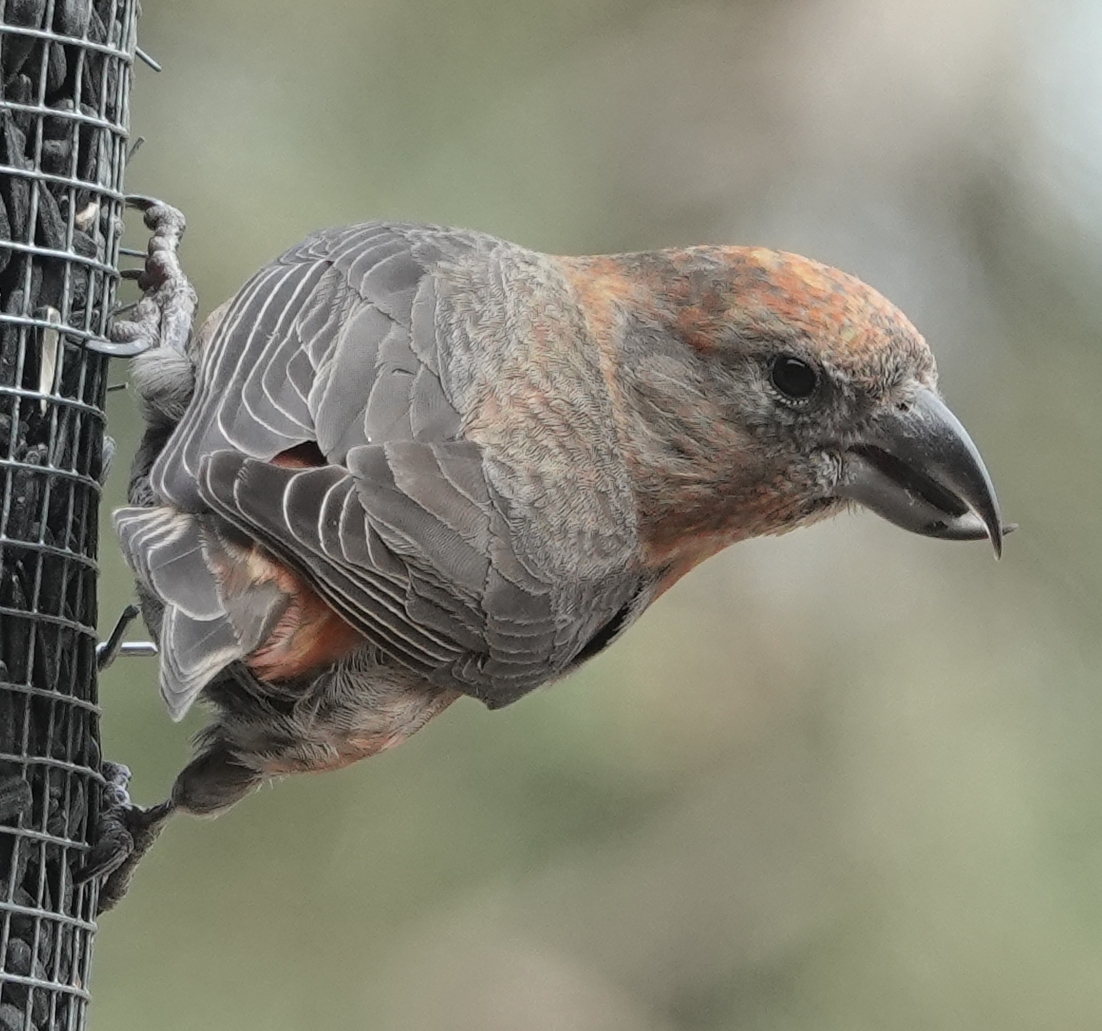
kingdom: Animalia
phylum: Chordata
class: Aves
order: Passeriformes
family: Fringillidae
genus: Loxia
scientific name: Loxia curvirostra
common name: Red crossbill
